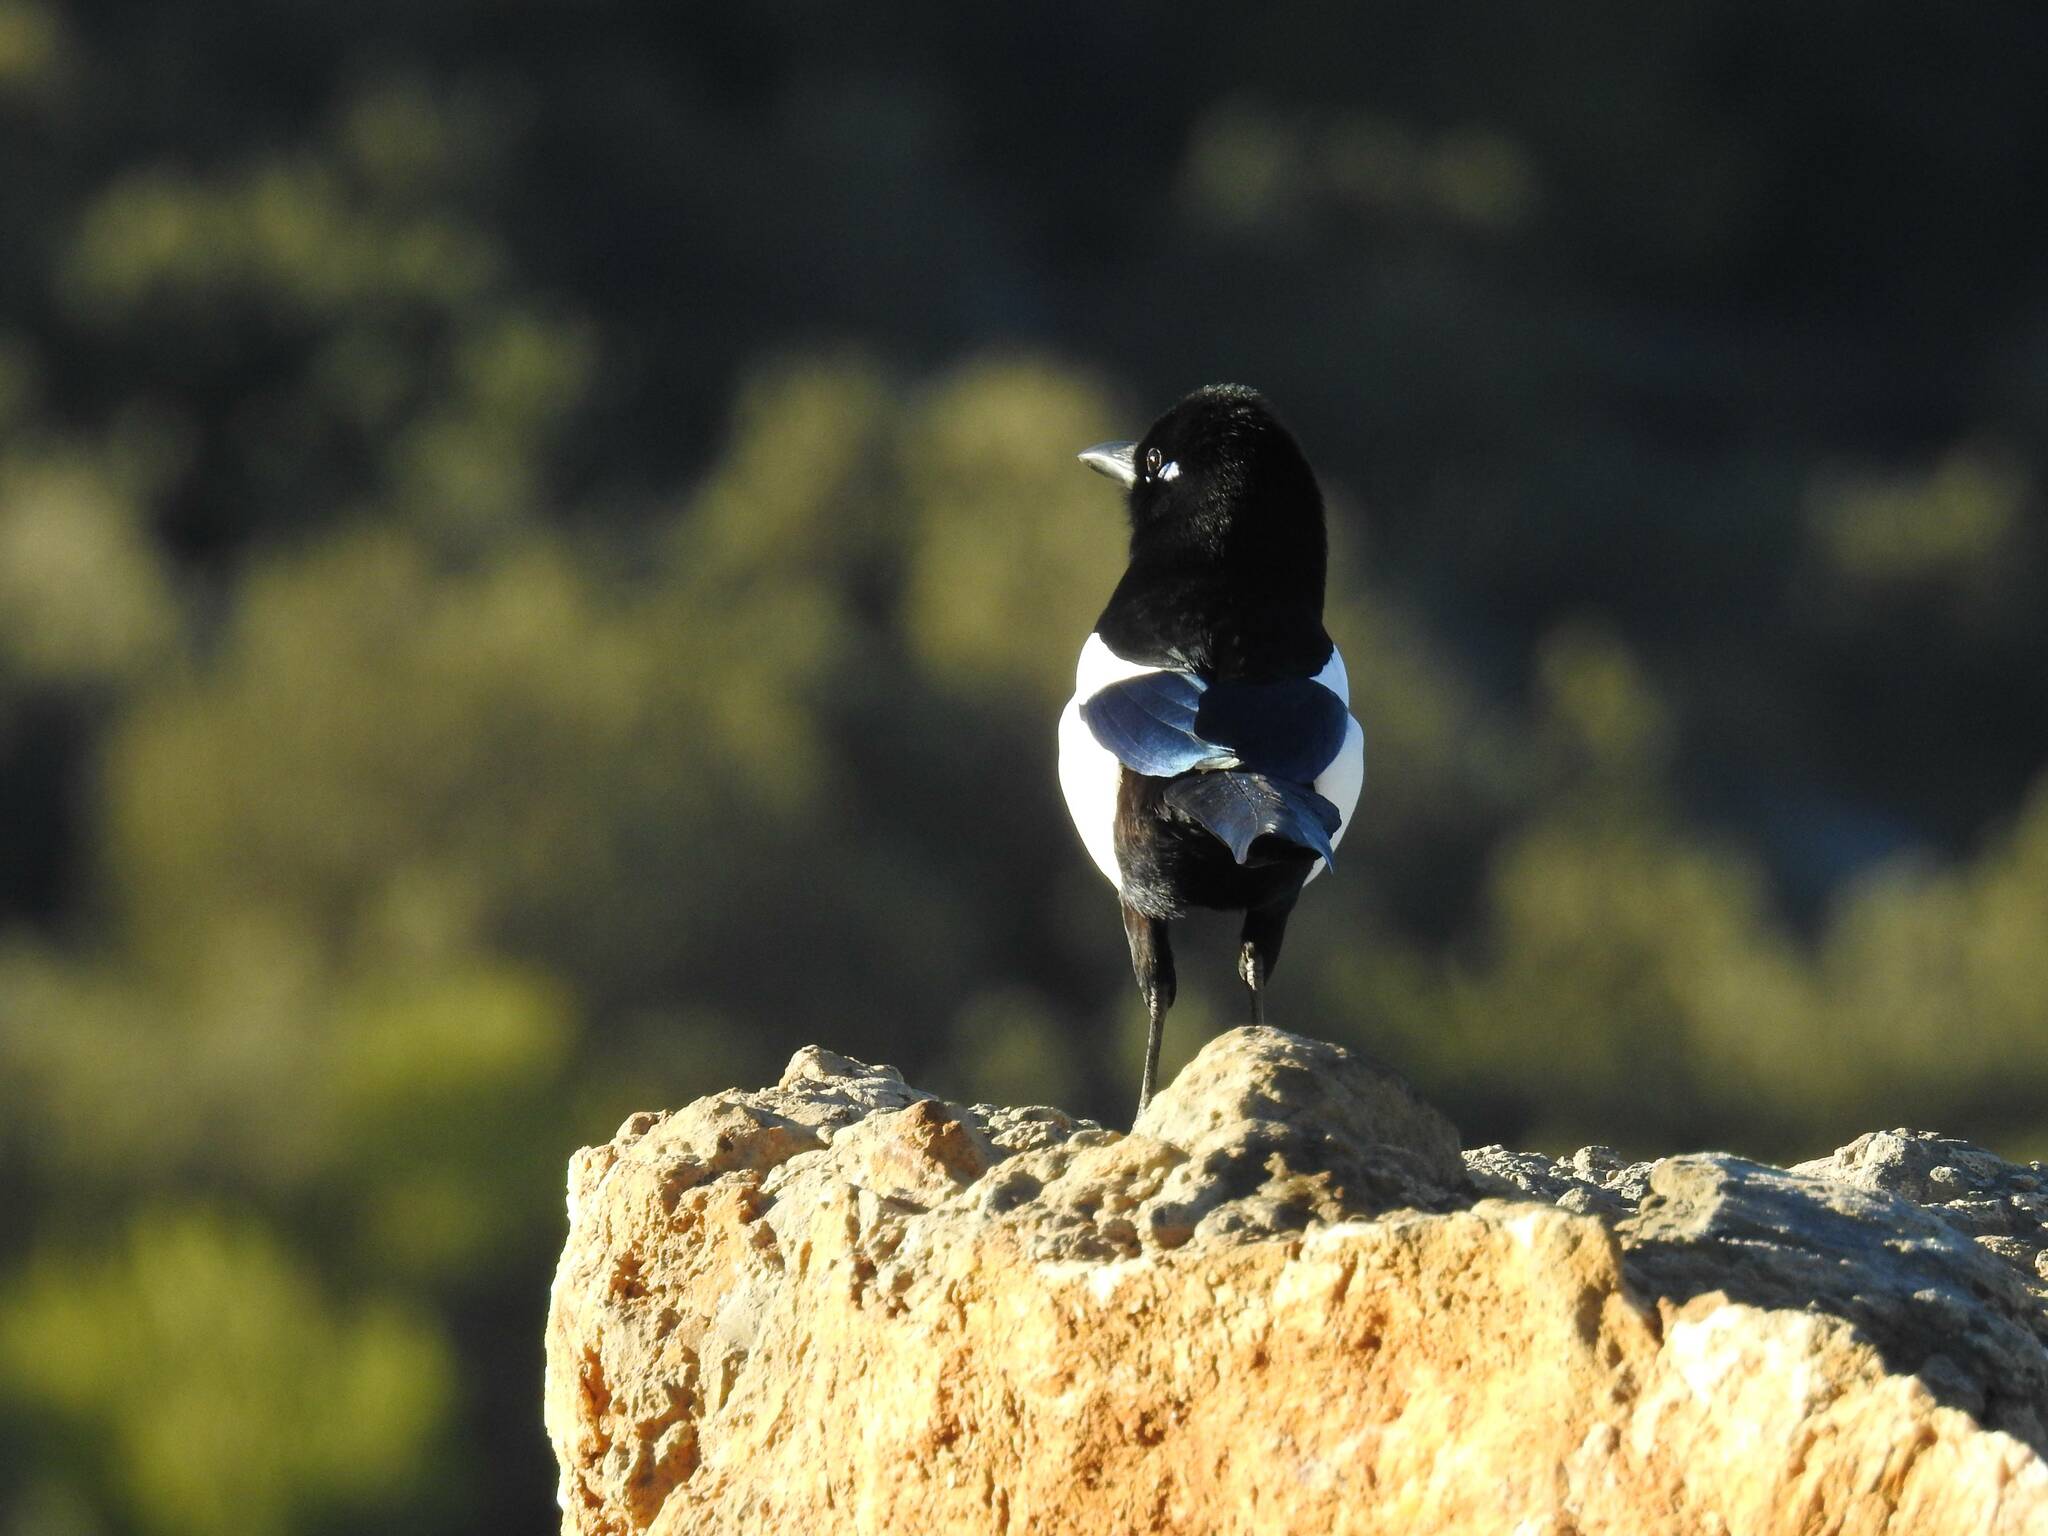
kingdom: Animalia
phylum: Chordata
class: Aves
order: Passeriformes
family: Corvidae
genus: Pica
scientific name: Pica mauritanica
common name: Maghreb magpie
